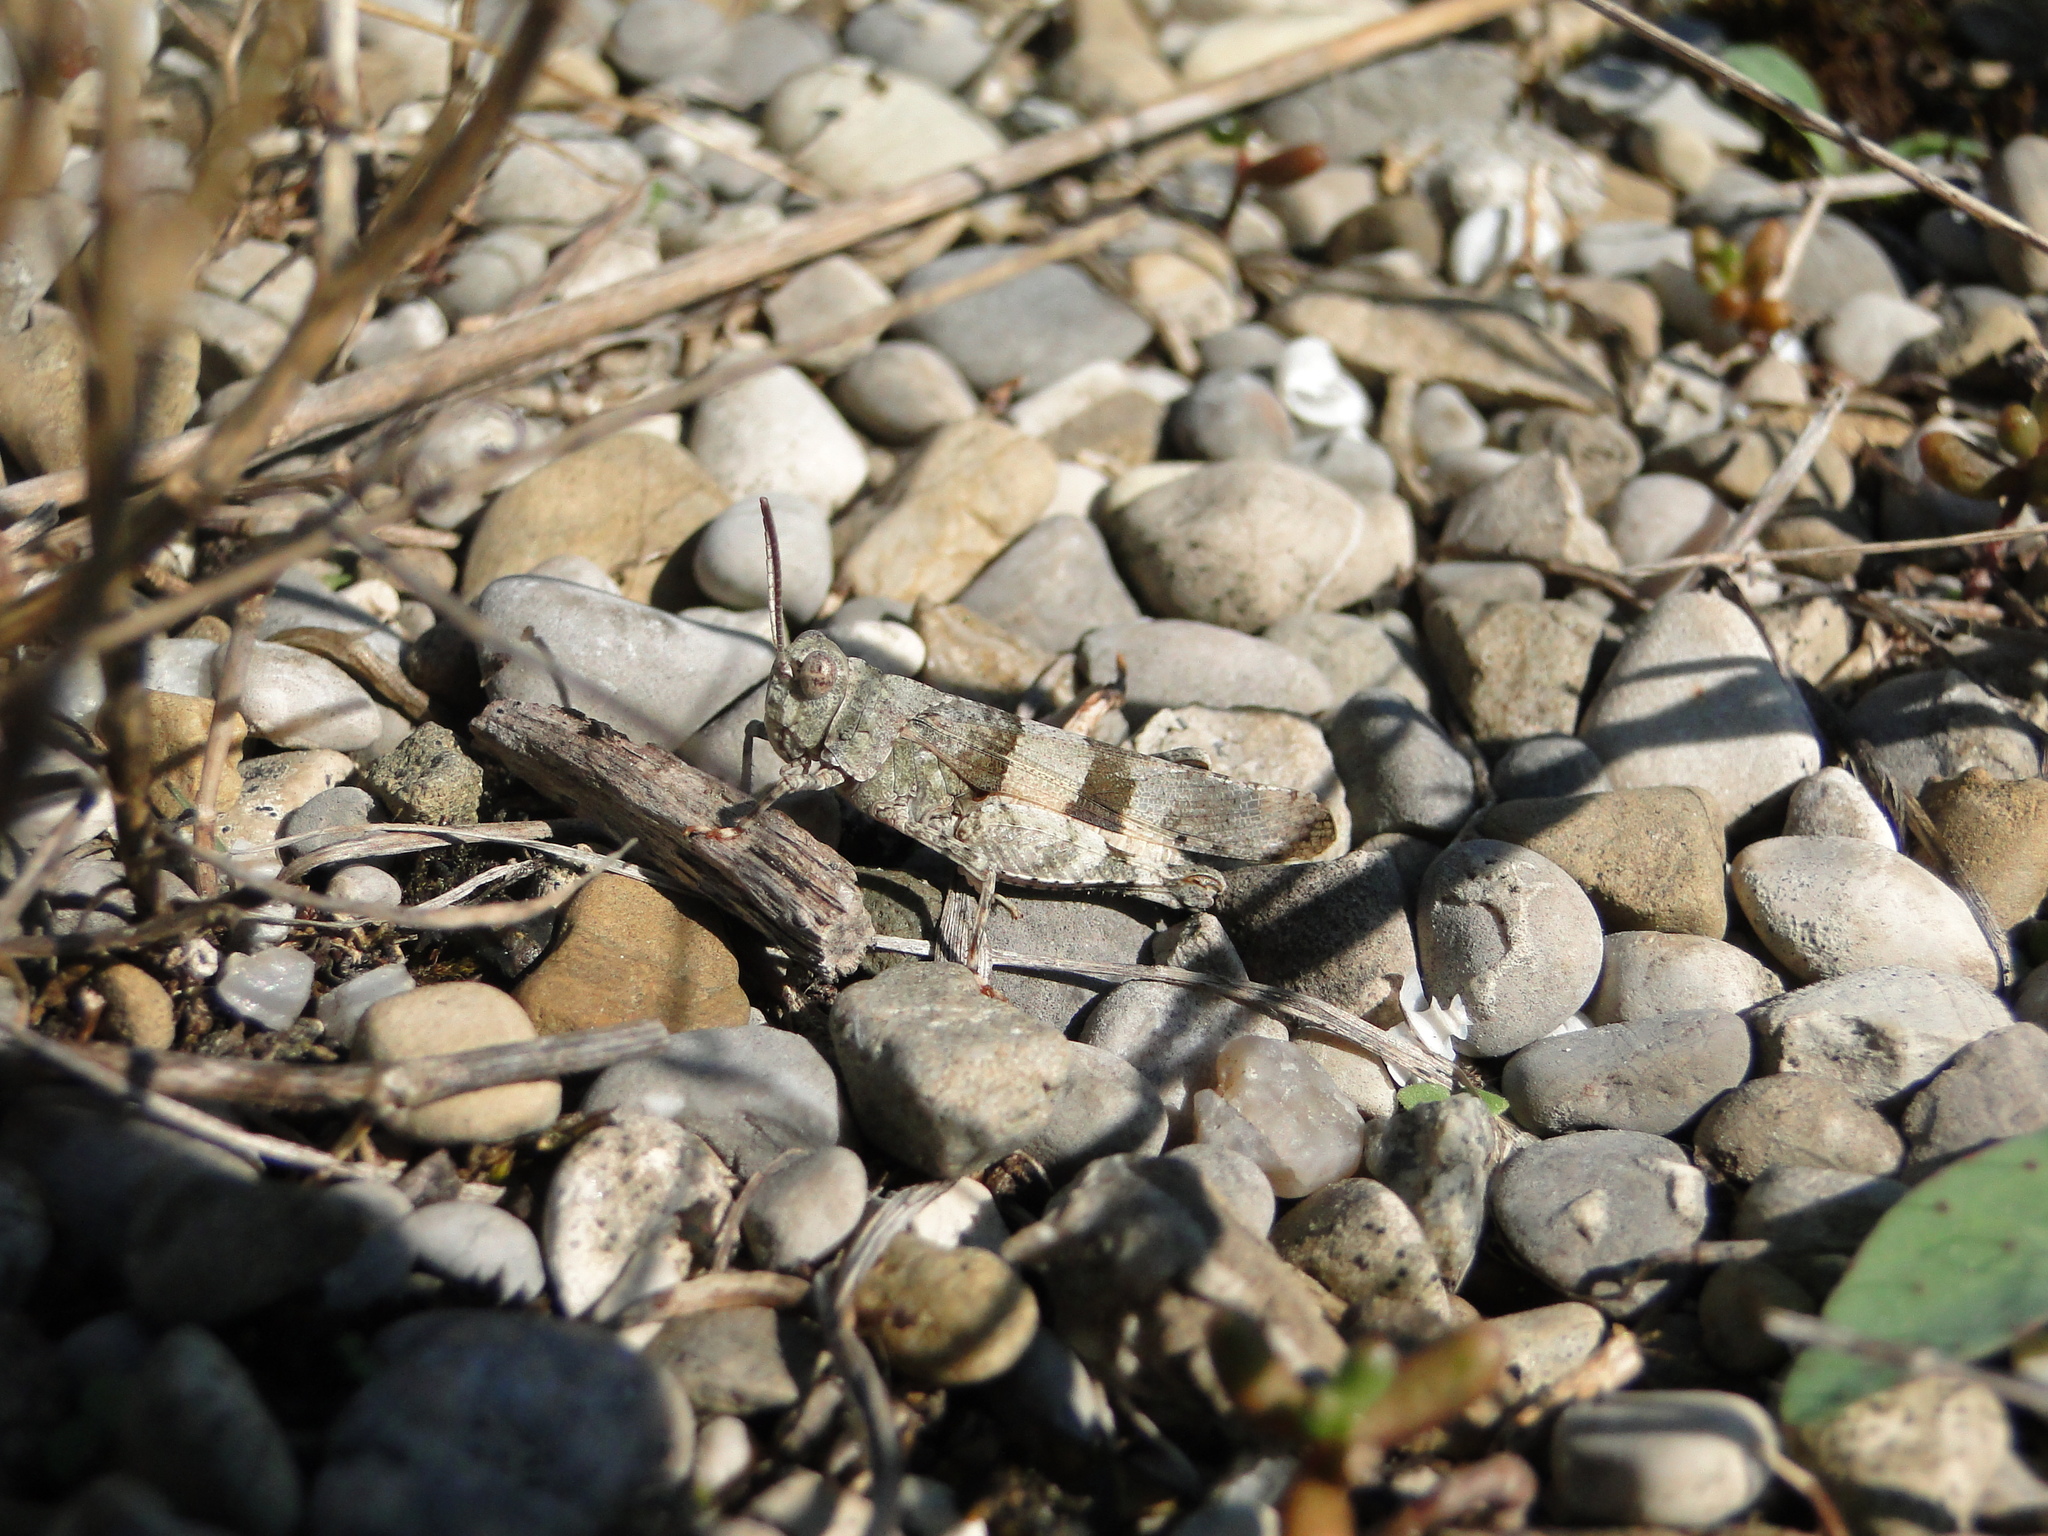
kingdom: Animalia
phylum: Arthropoda
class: Insecta
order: Orthoptera
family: Acrididae
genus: Oedipoda
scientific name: Oedipoda caerulescens
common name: Blue-winged grasshopper
